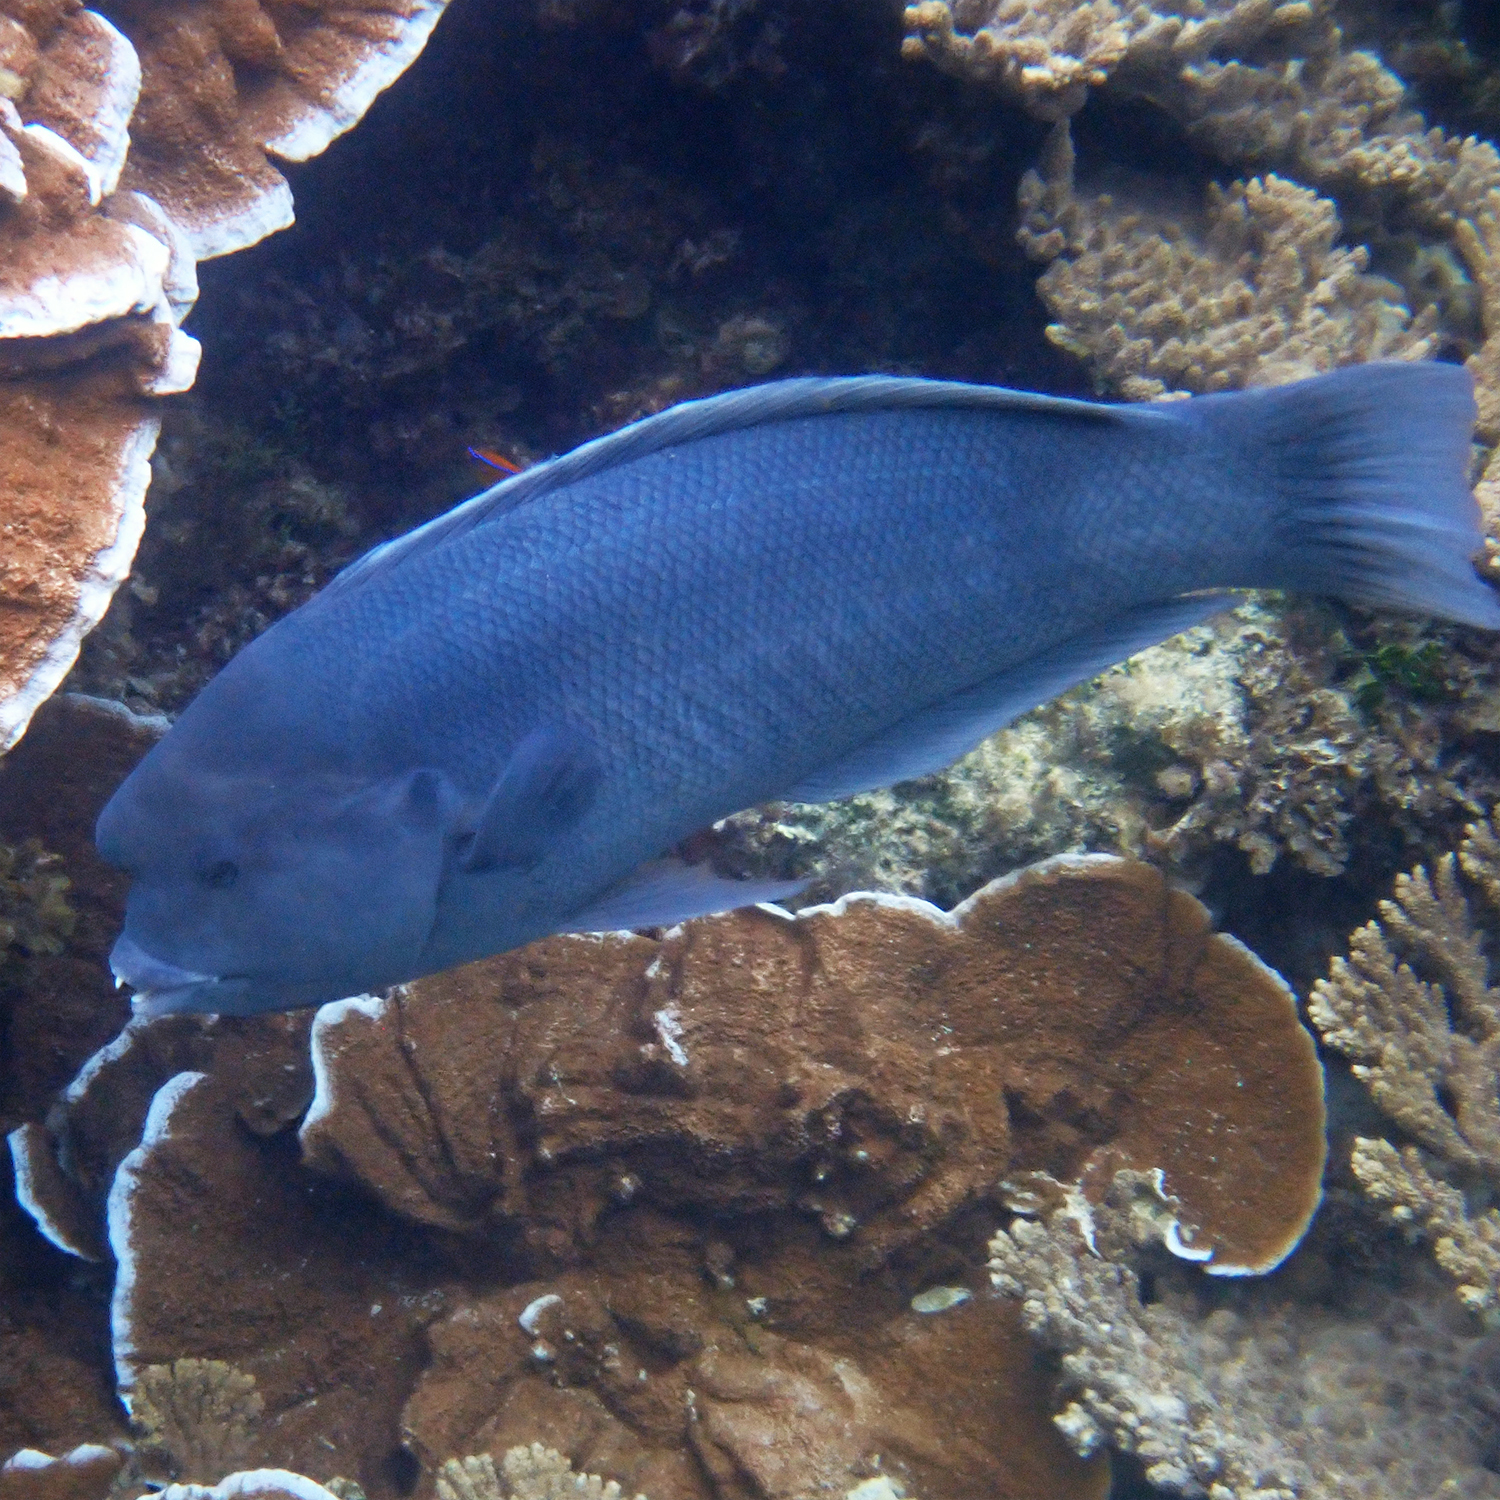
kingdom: Animalia
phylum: Chordata
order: Perciformes
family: Labridae
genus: Coris
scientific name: Coris bulbifrons
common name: Doubleheader
